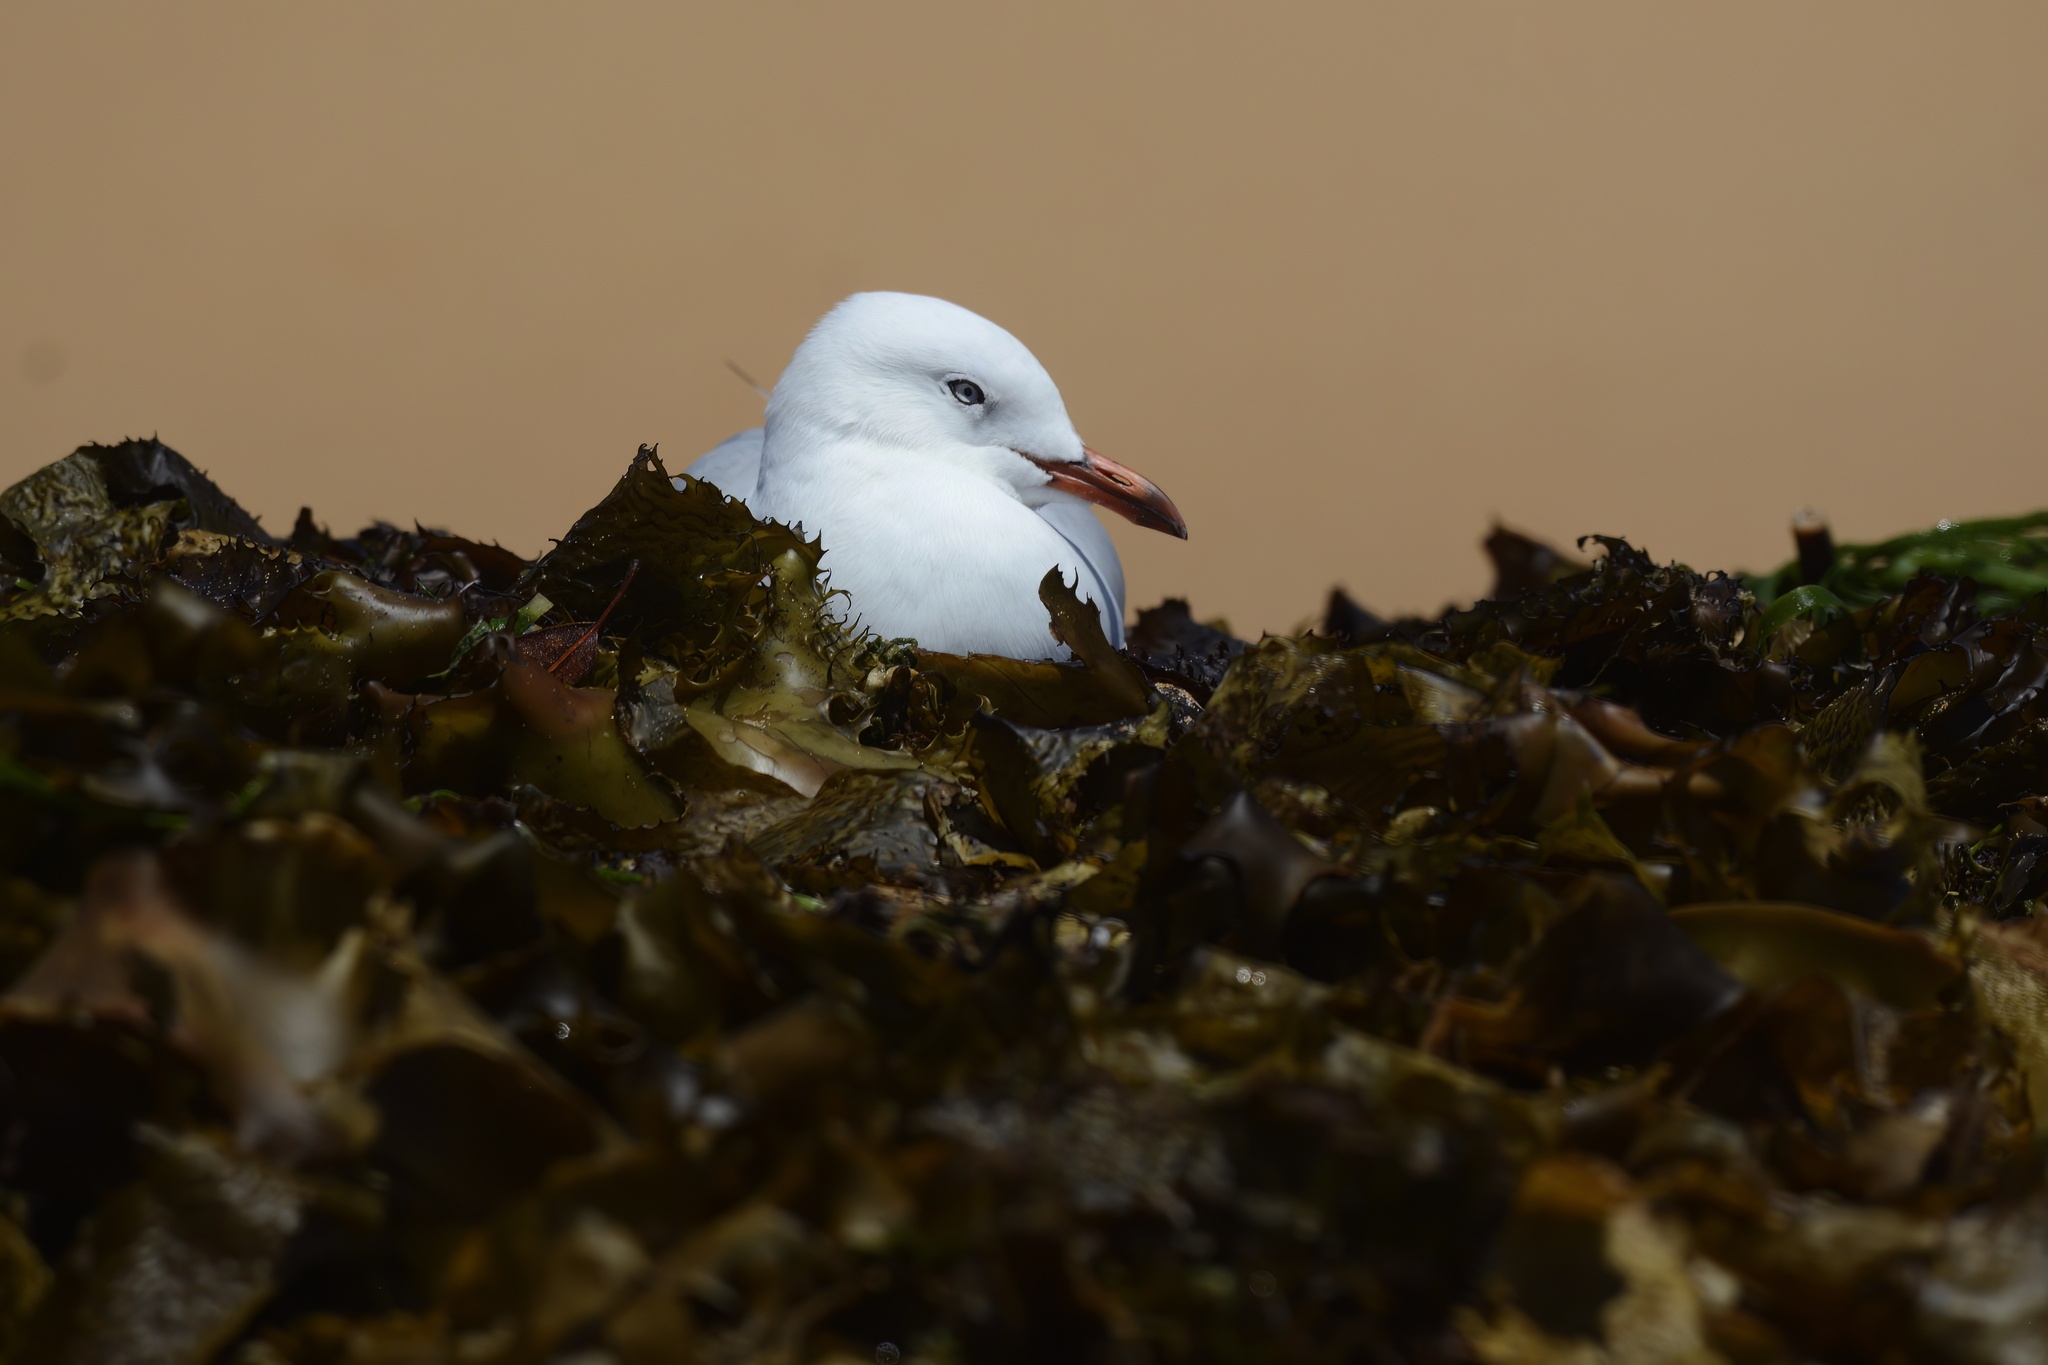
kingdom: Animalia
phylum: Chordata
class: Aves
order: Charadriiformes
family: Laridae
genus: Chroicocephalus
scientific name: Chroicocephalus novaehollandiae
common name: Silver gull
